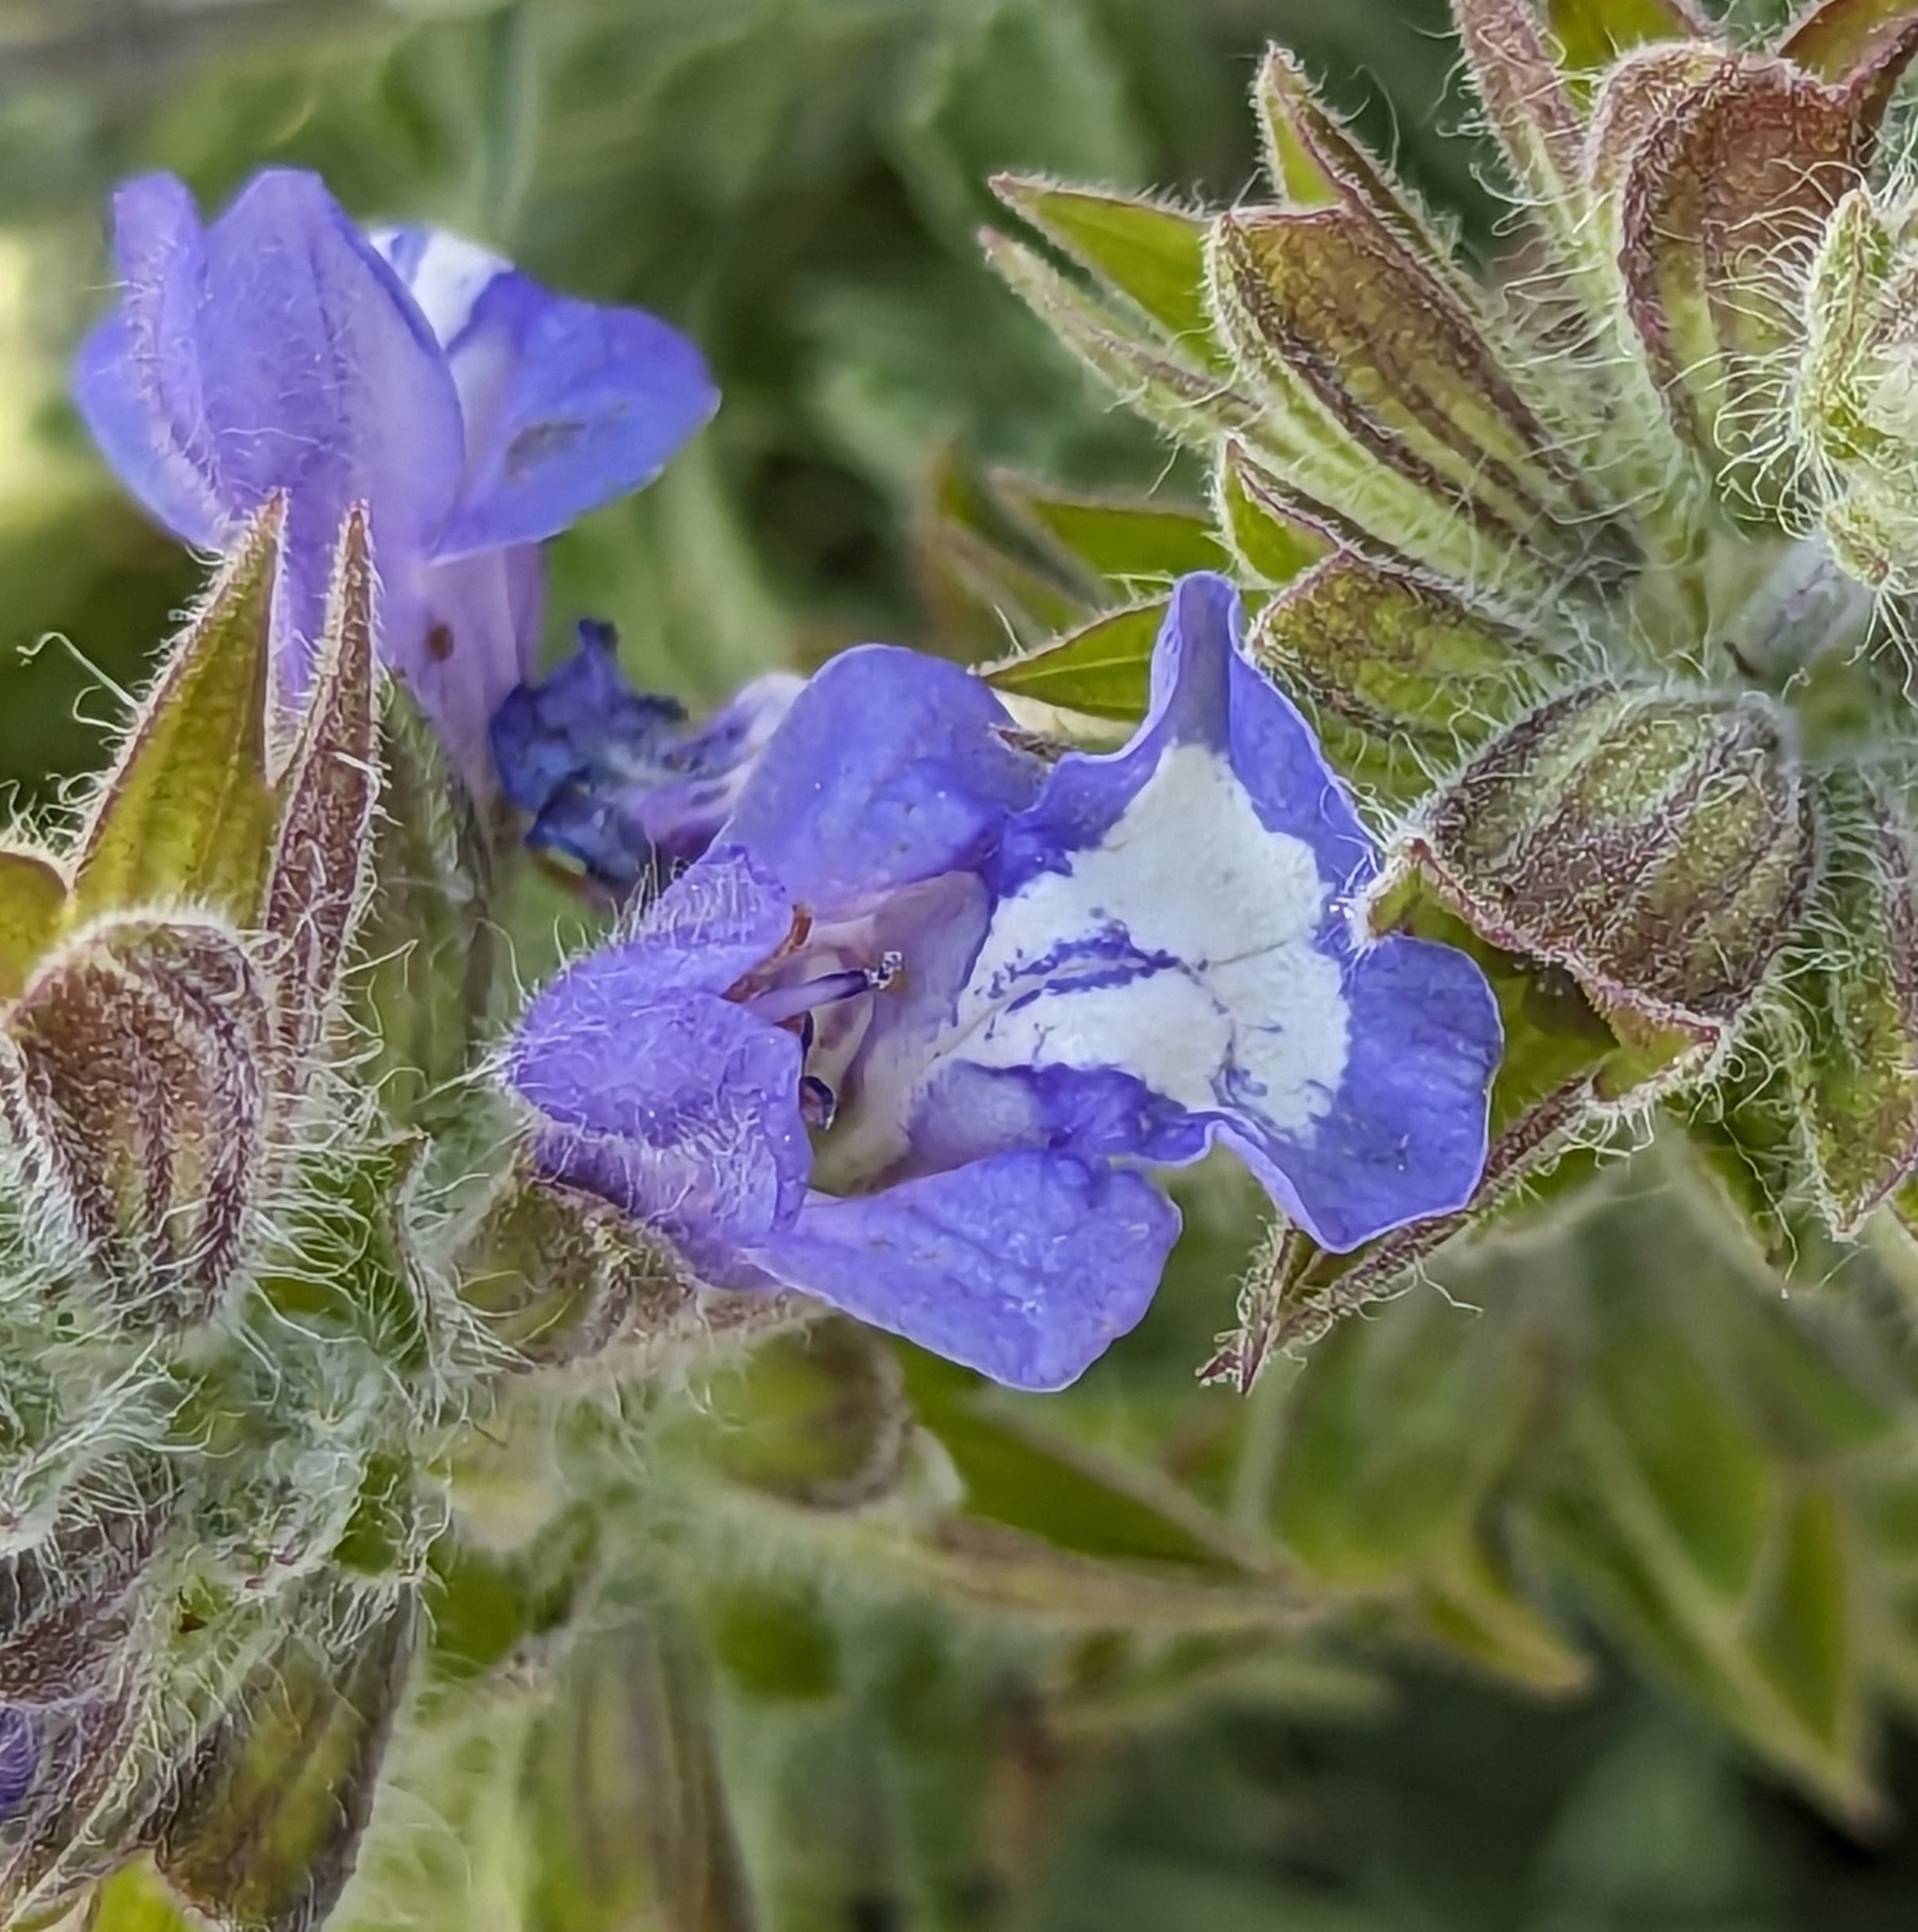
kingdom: Plantae
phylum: Tracheophyta
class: Magnoliopsida
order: Lamiales
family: Lamiaceae
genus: Salvia
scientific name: Salvia pisidica
